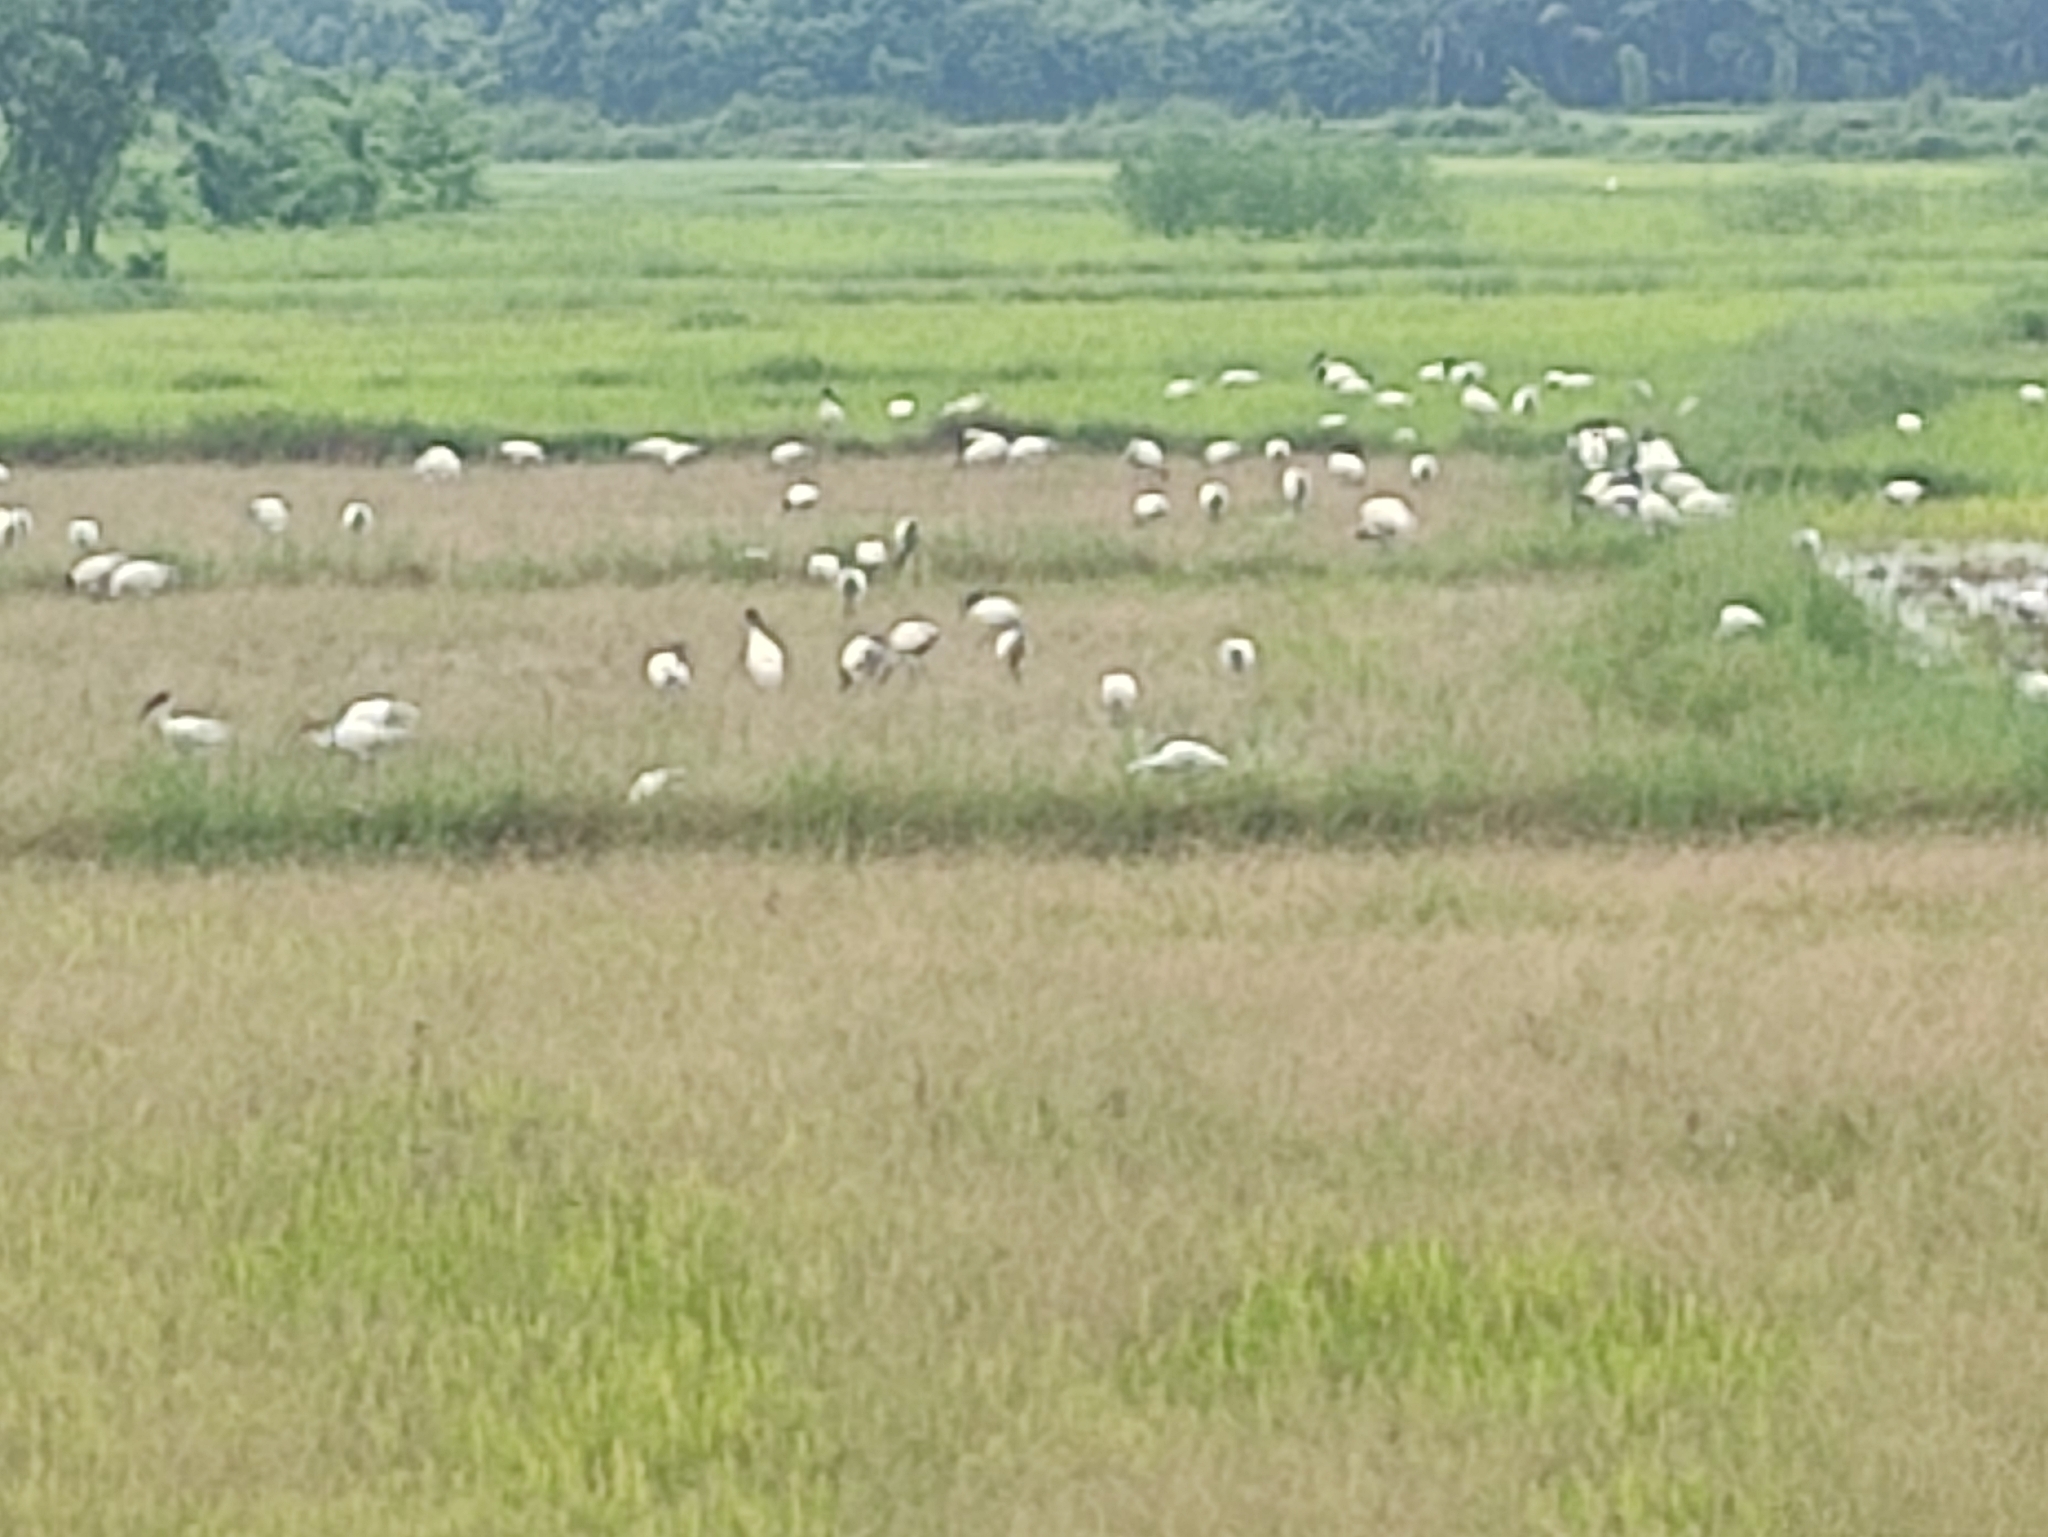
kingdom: Animalia
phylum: Chordata
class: Aves
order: Pelecaniformes
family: Threskiornithidae
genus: Threskiornis
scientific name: Threskiornis melanocephalus
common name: Black-headed ibis
